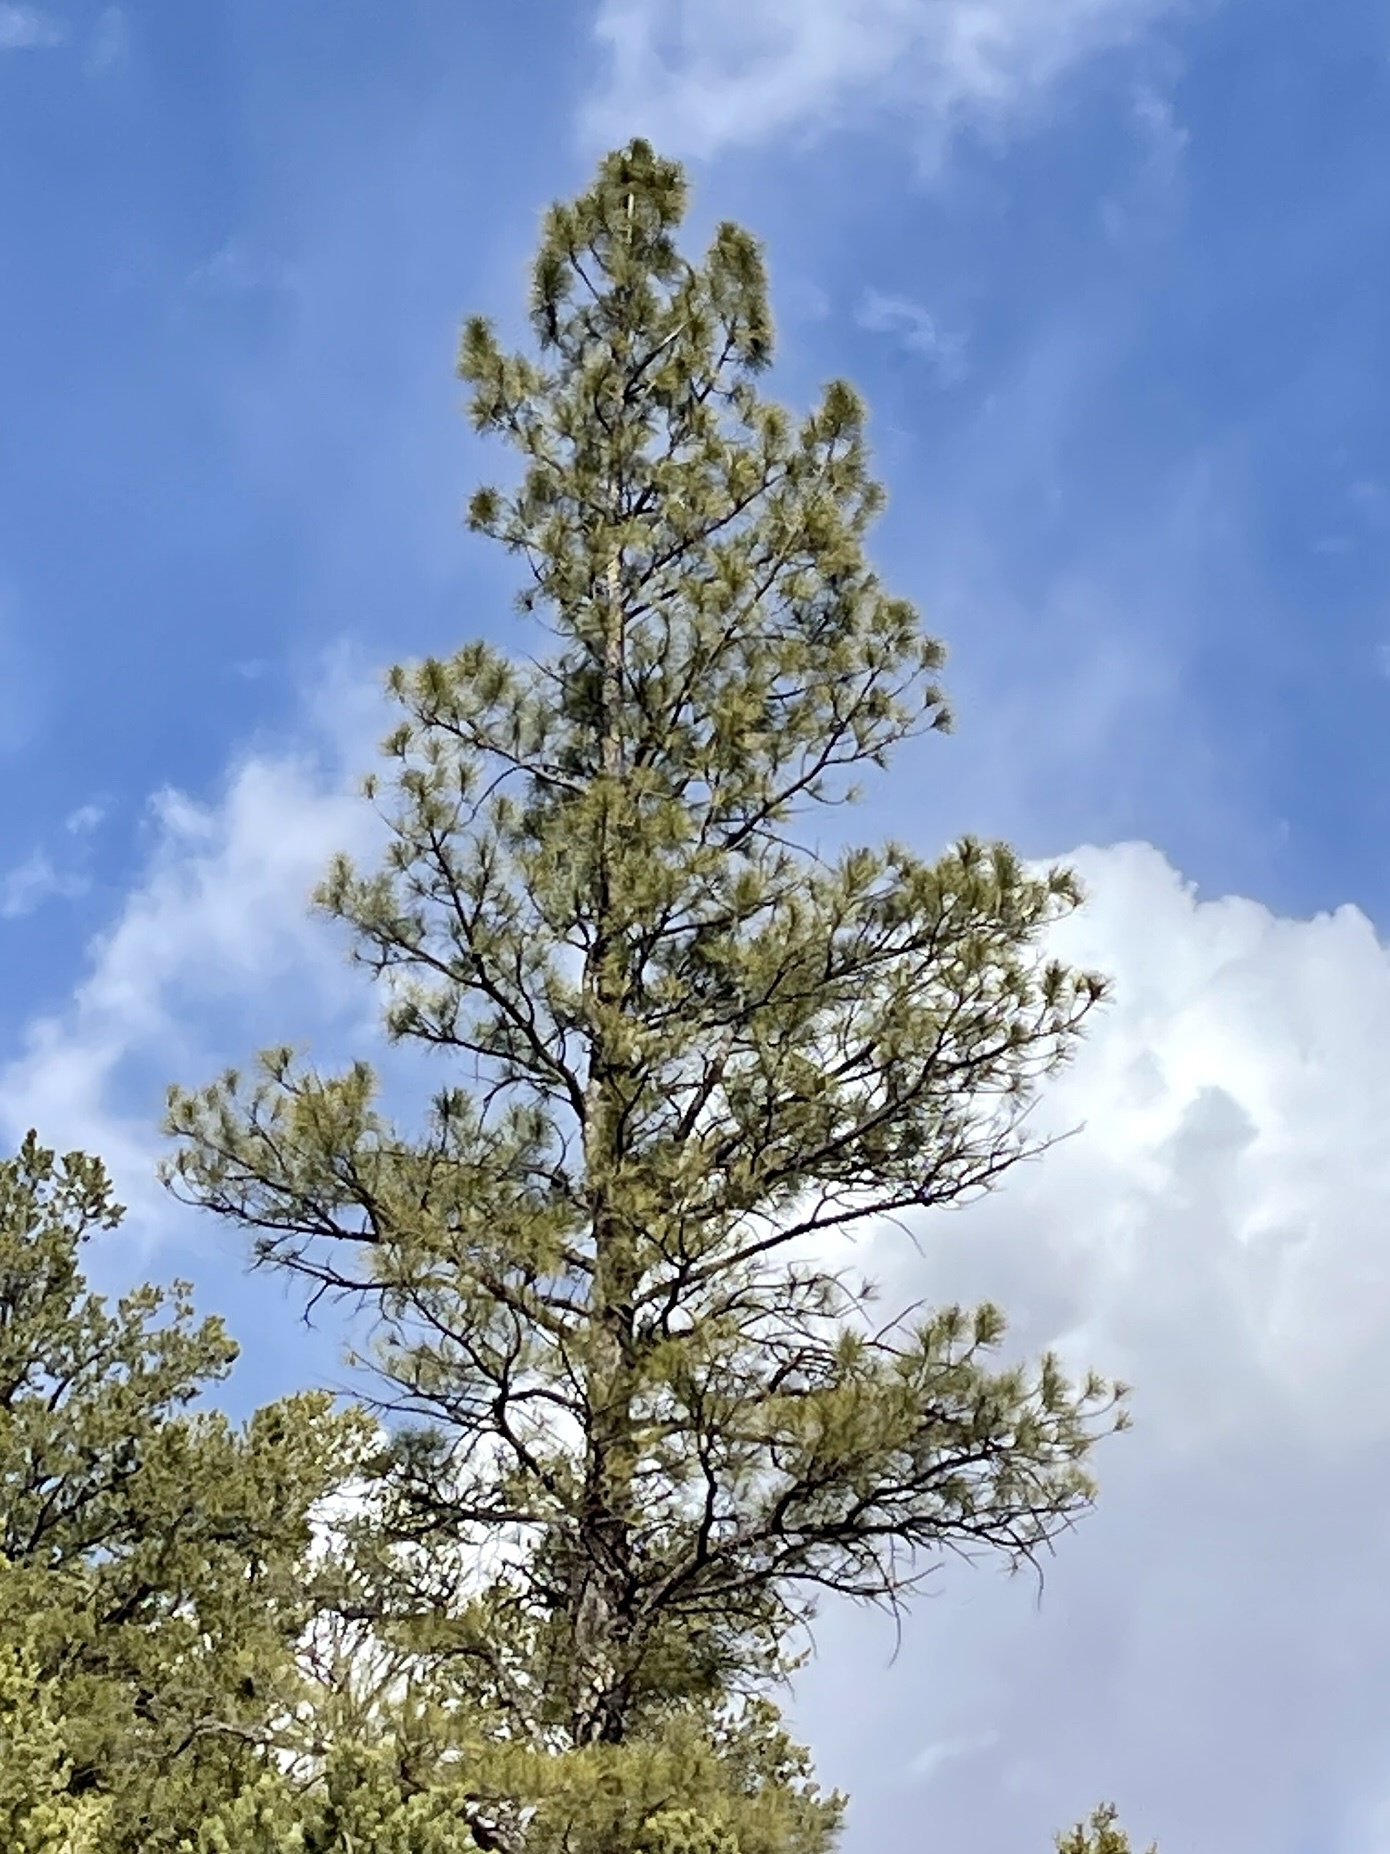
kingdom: Plantae
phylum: Tracheophyta
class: Pinopsida
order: Pinales
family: Pinaceae
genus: Pinus
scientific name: Pinus ponderosa
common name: Western yellow-pine
